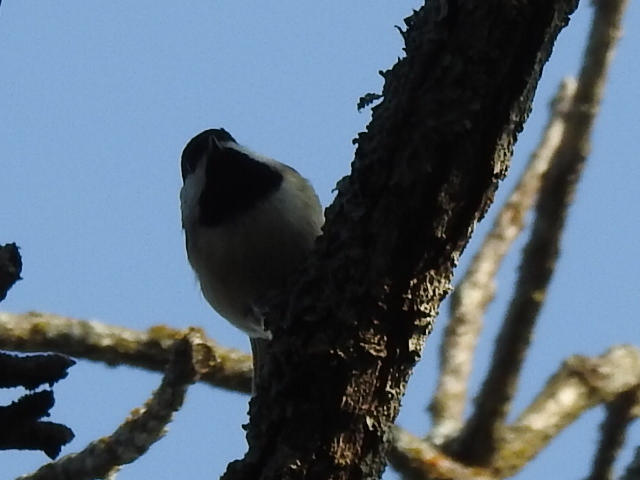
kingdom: Animalia
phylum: Chordata
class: Aves
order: Passeriformes
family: Paridae
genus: Poecile
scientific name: Poecile carolinensis
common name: Carolina chickadee
